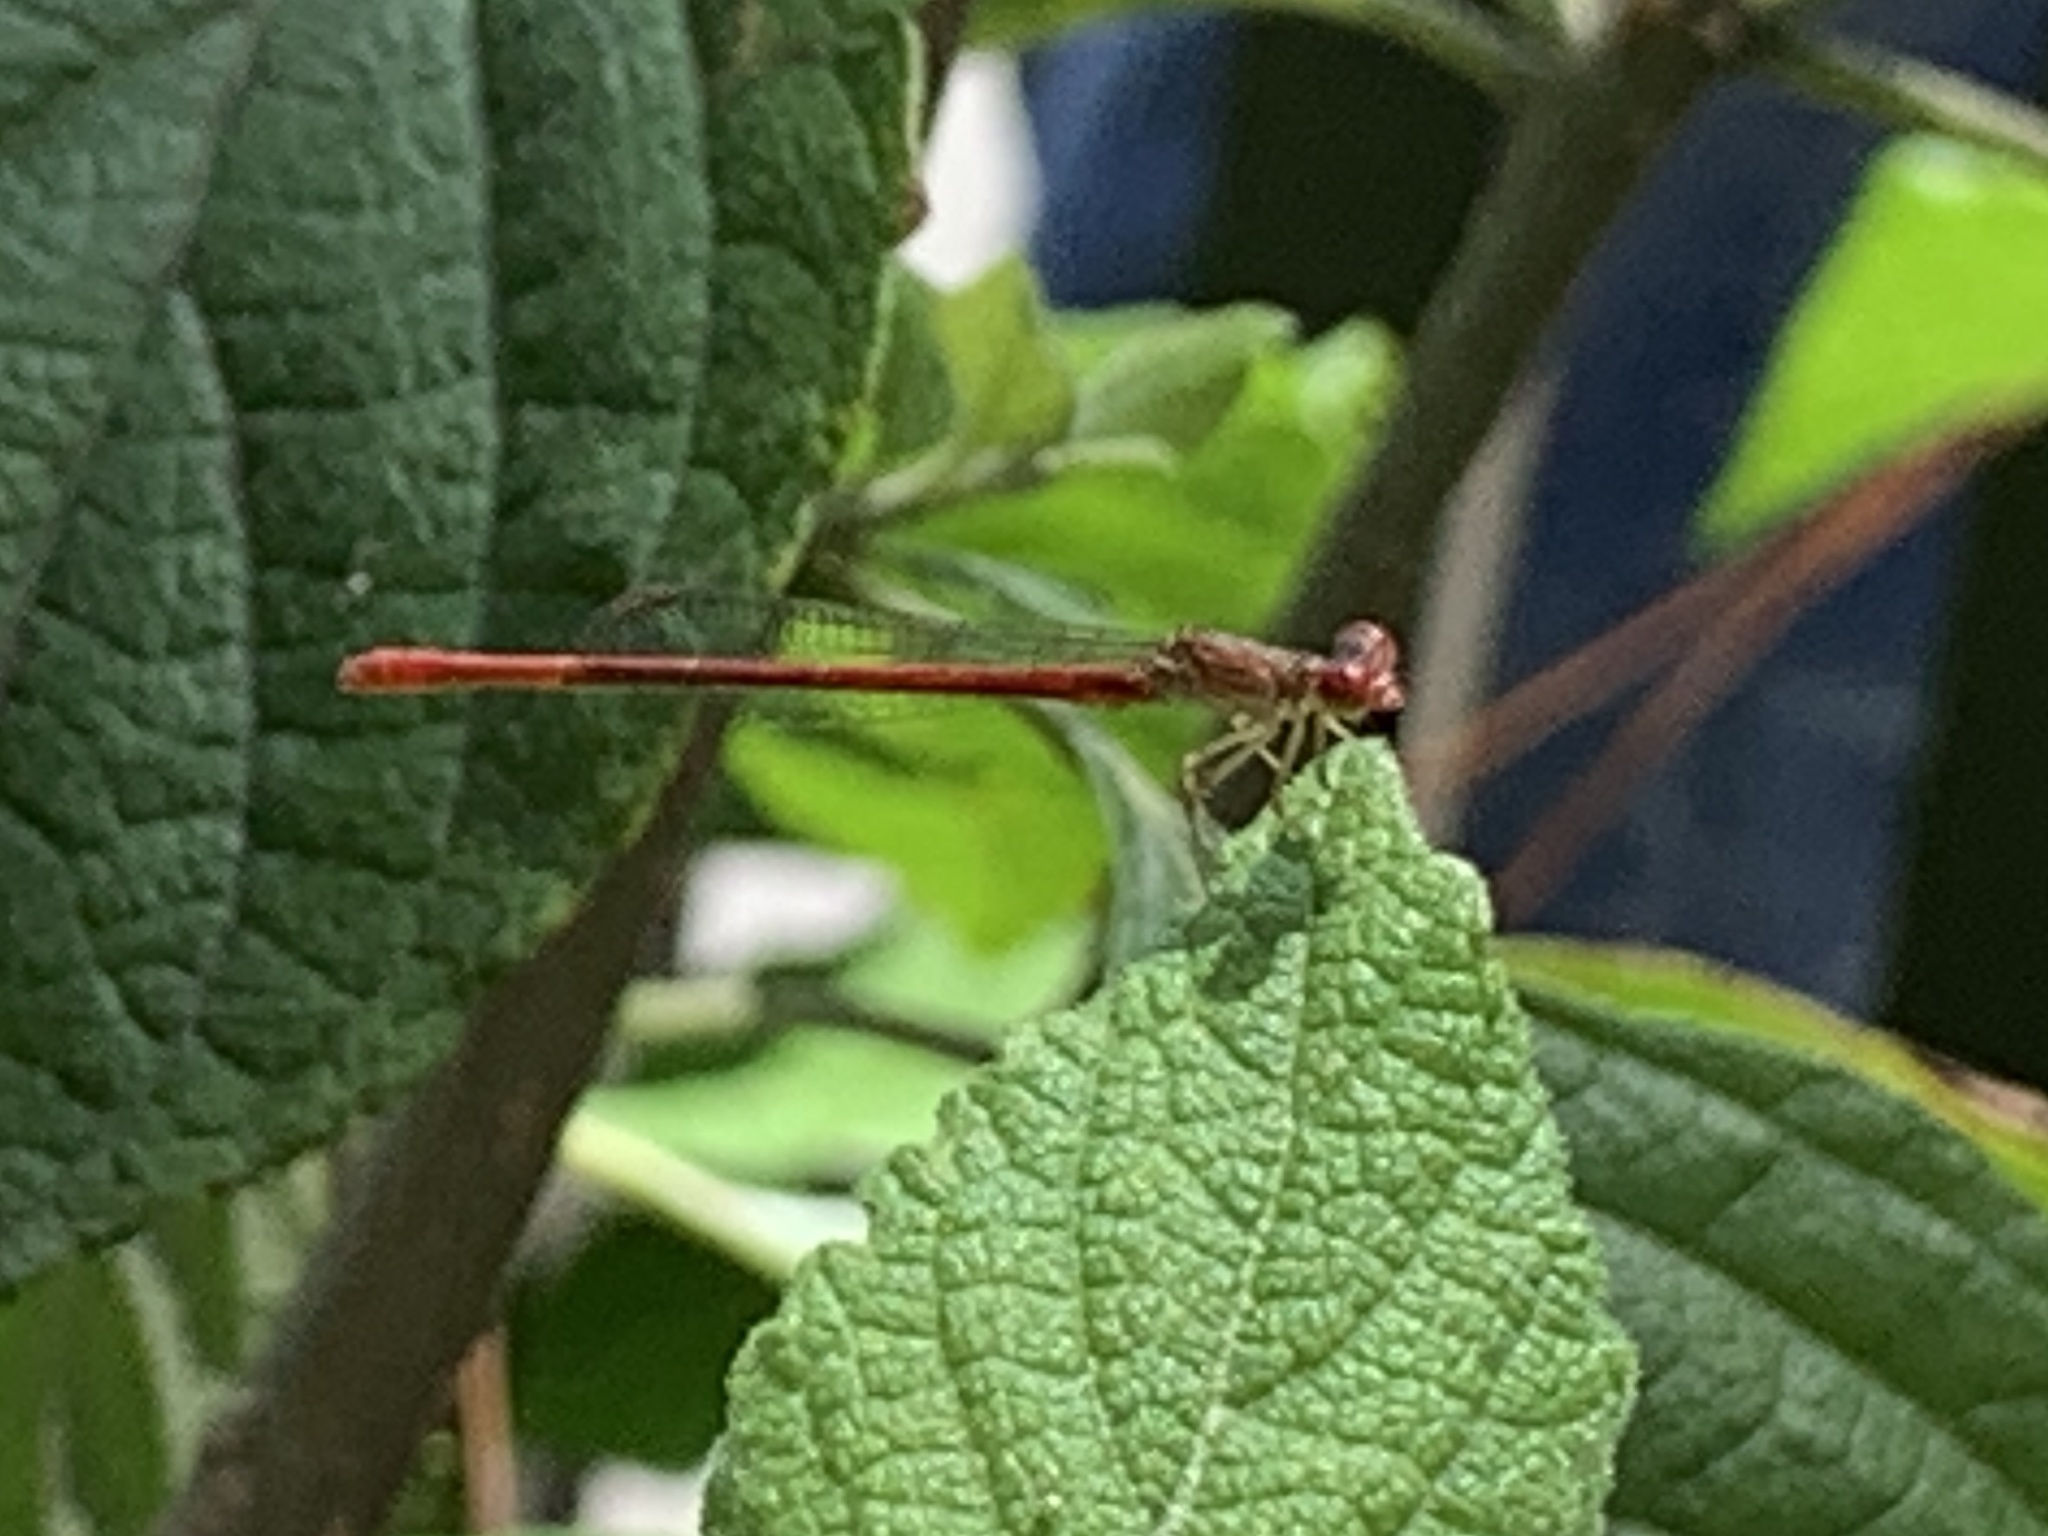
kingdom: Animalia
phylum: Arthropoda
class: Insecta
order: Odonata
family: Coenagrionidae
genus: Telebasis
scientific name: Telebasis byersi
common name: Duckweed firetail
